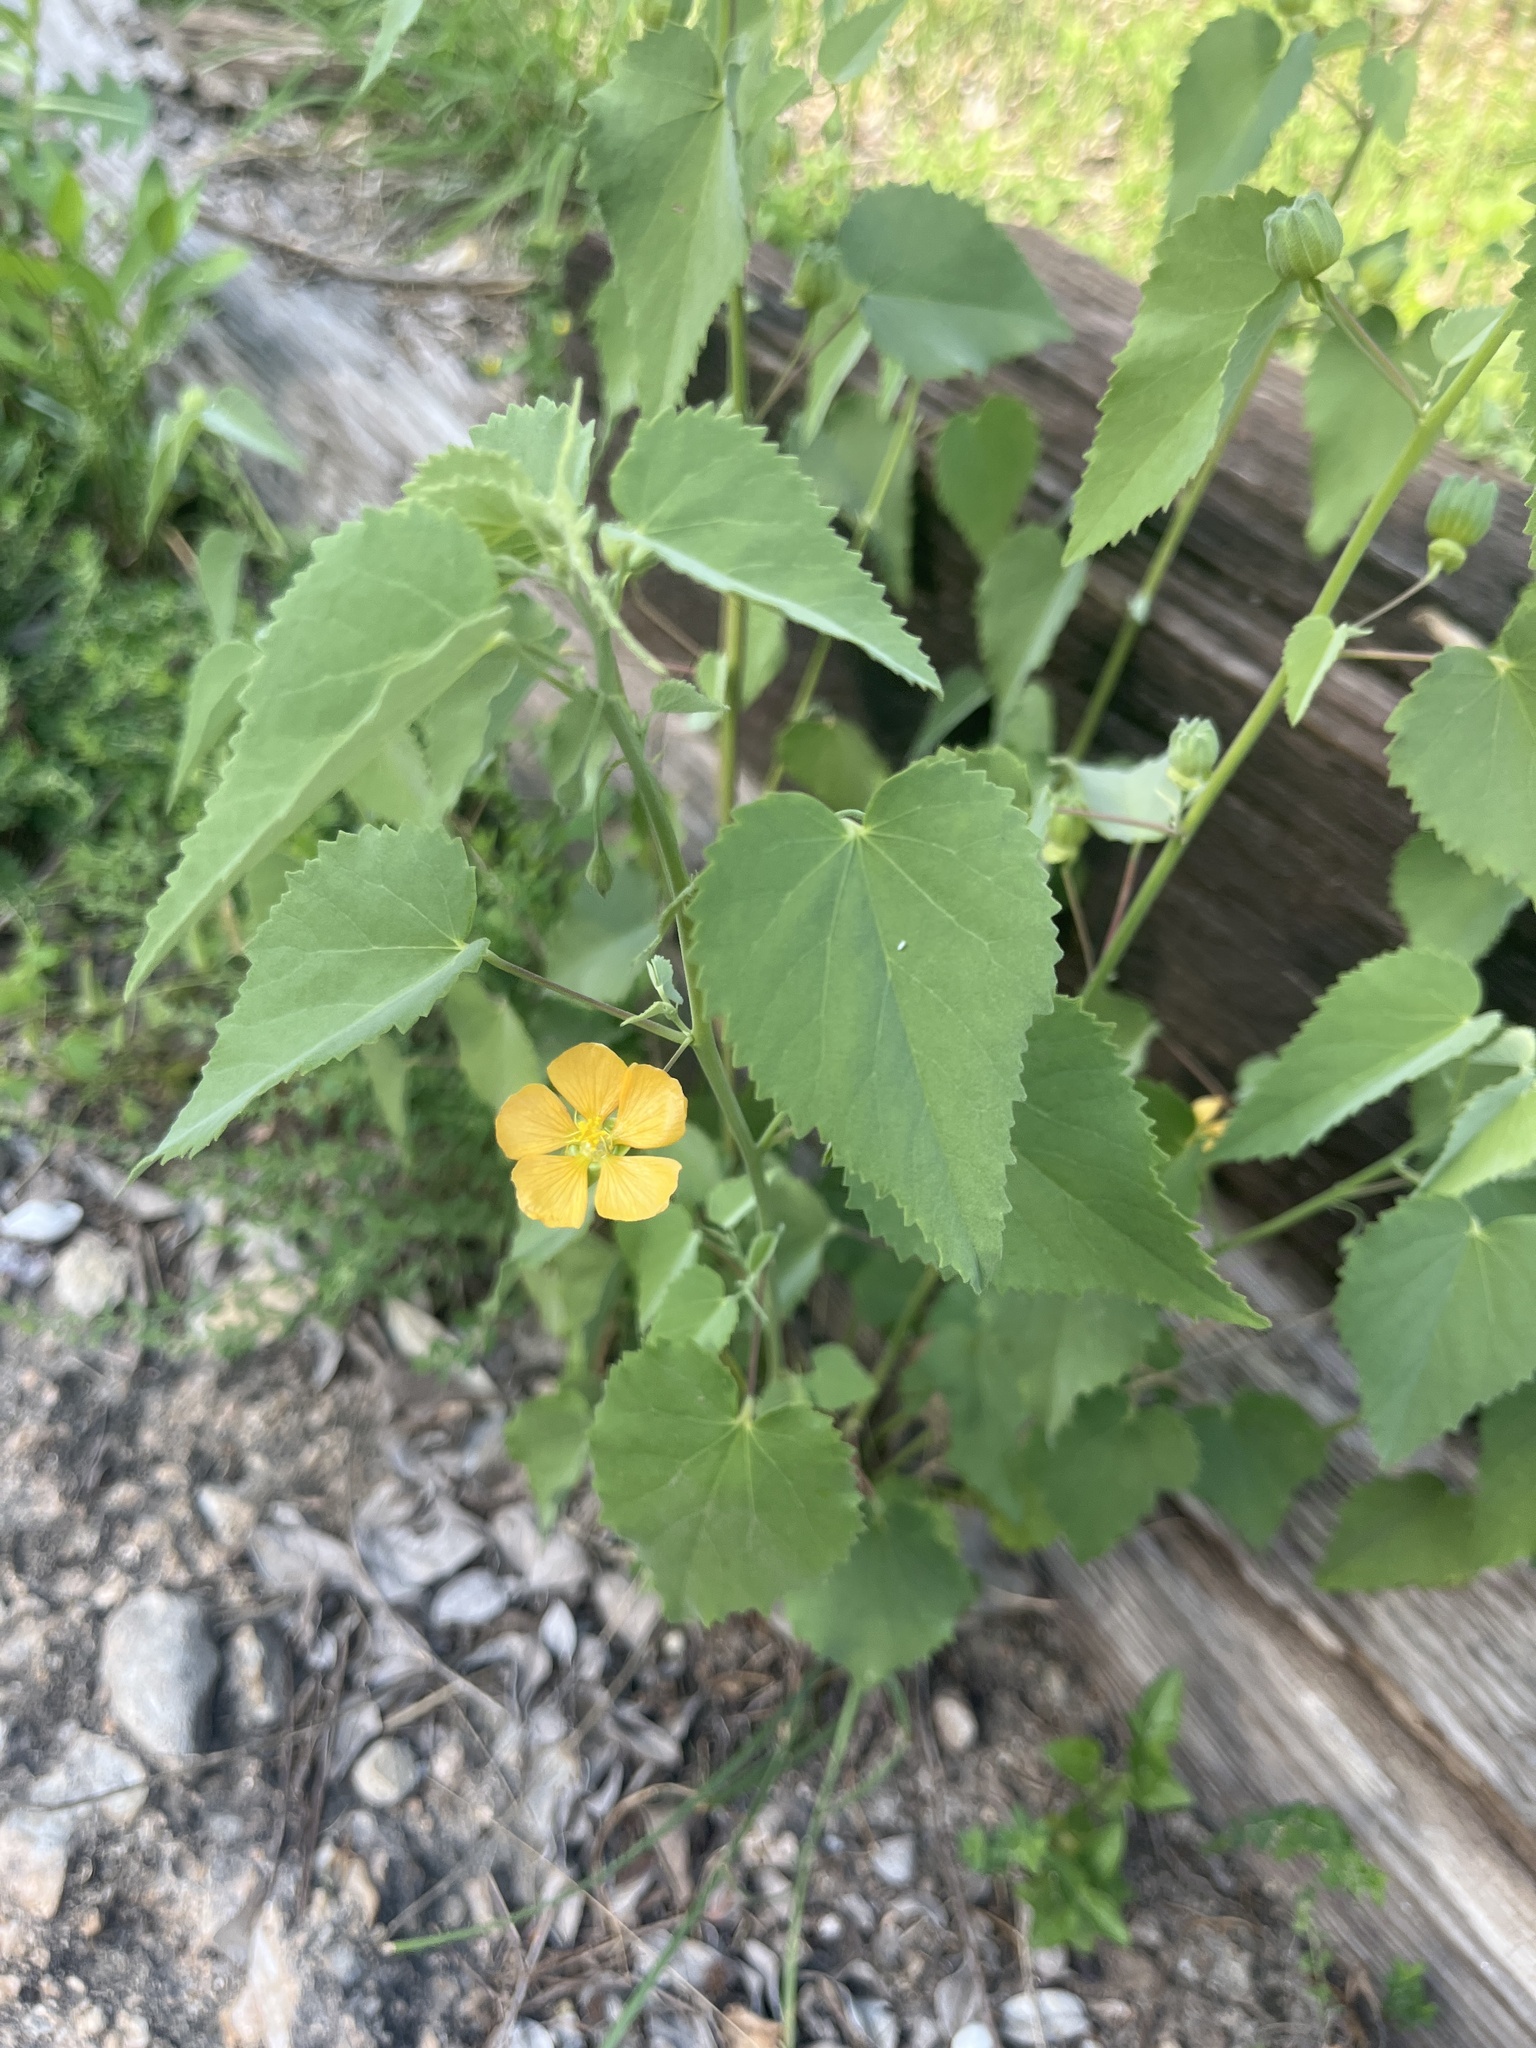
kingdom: Plantae
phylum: Tracheophyta
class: Magnoliopsida
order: Malvales
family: Malvaceae
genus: Abutilon
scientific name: Abutilon fruticosum
